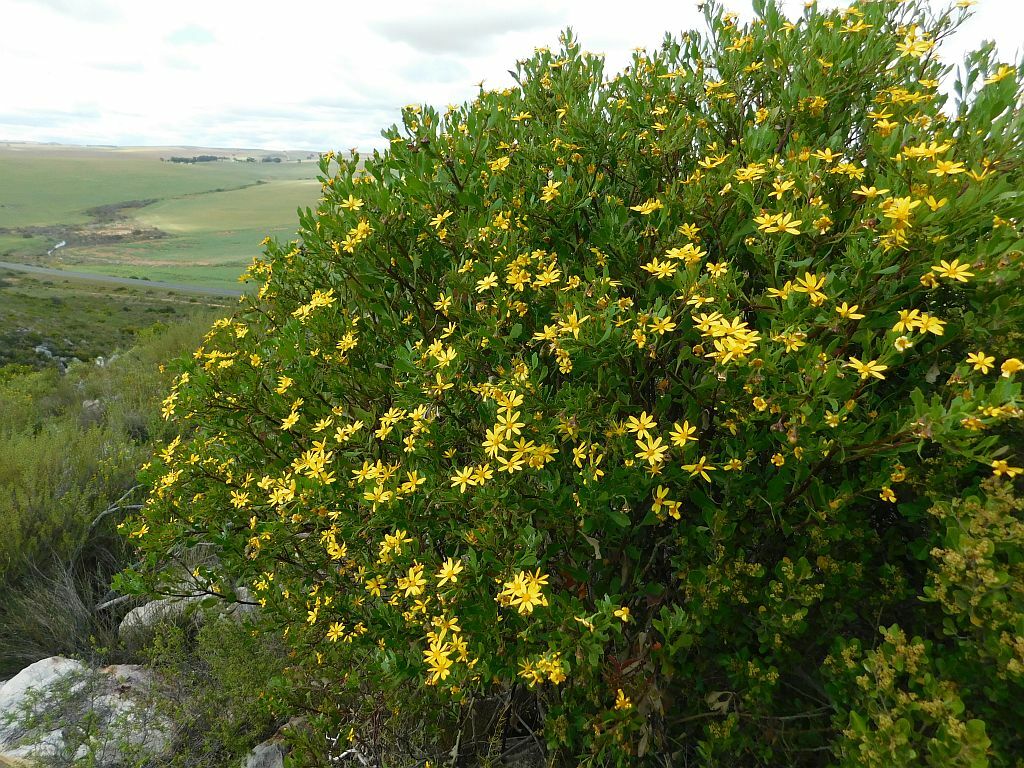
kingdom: Plantae
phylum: Tracheophyta
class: Magnoliopsida
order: Asterales
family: Asteraceae
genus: Osteospermum
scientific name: Osteospermum moniliferum
